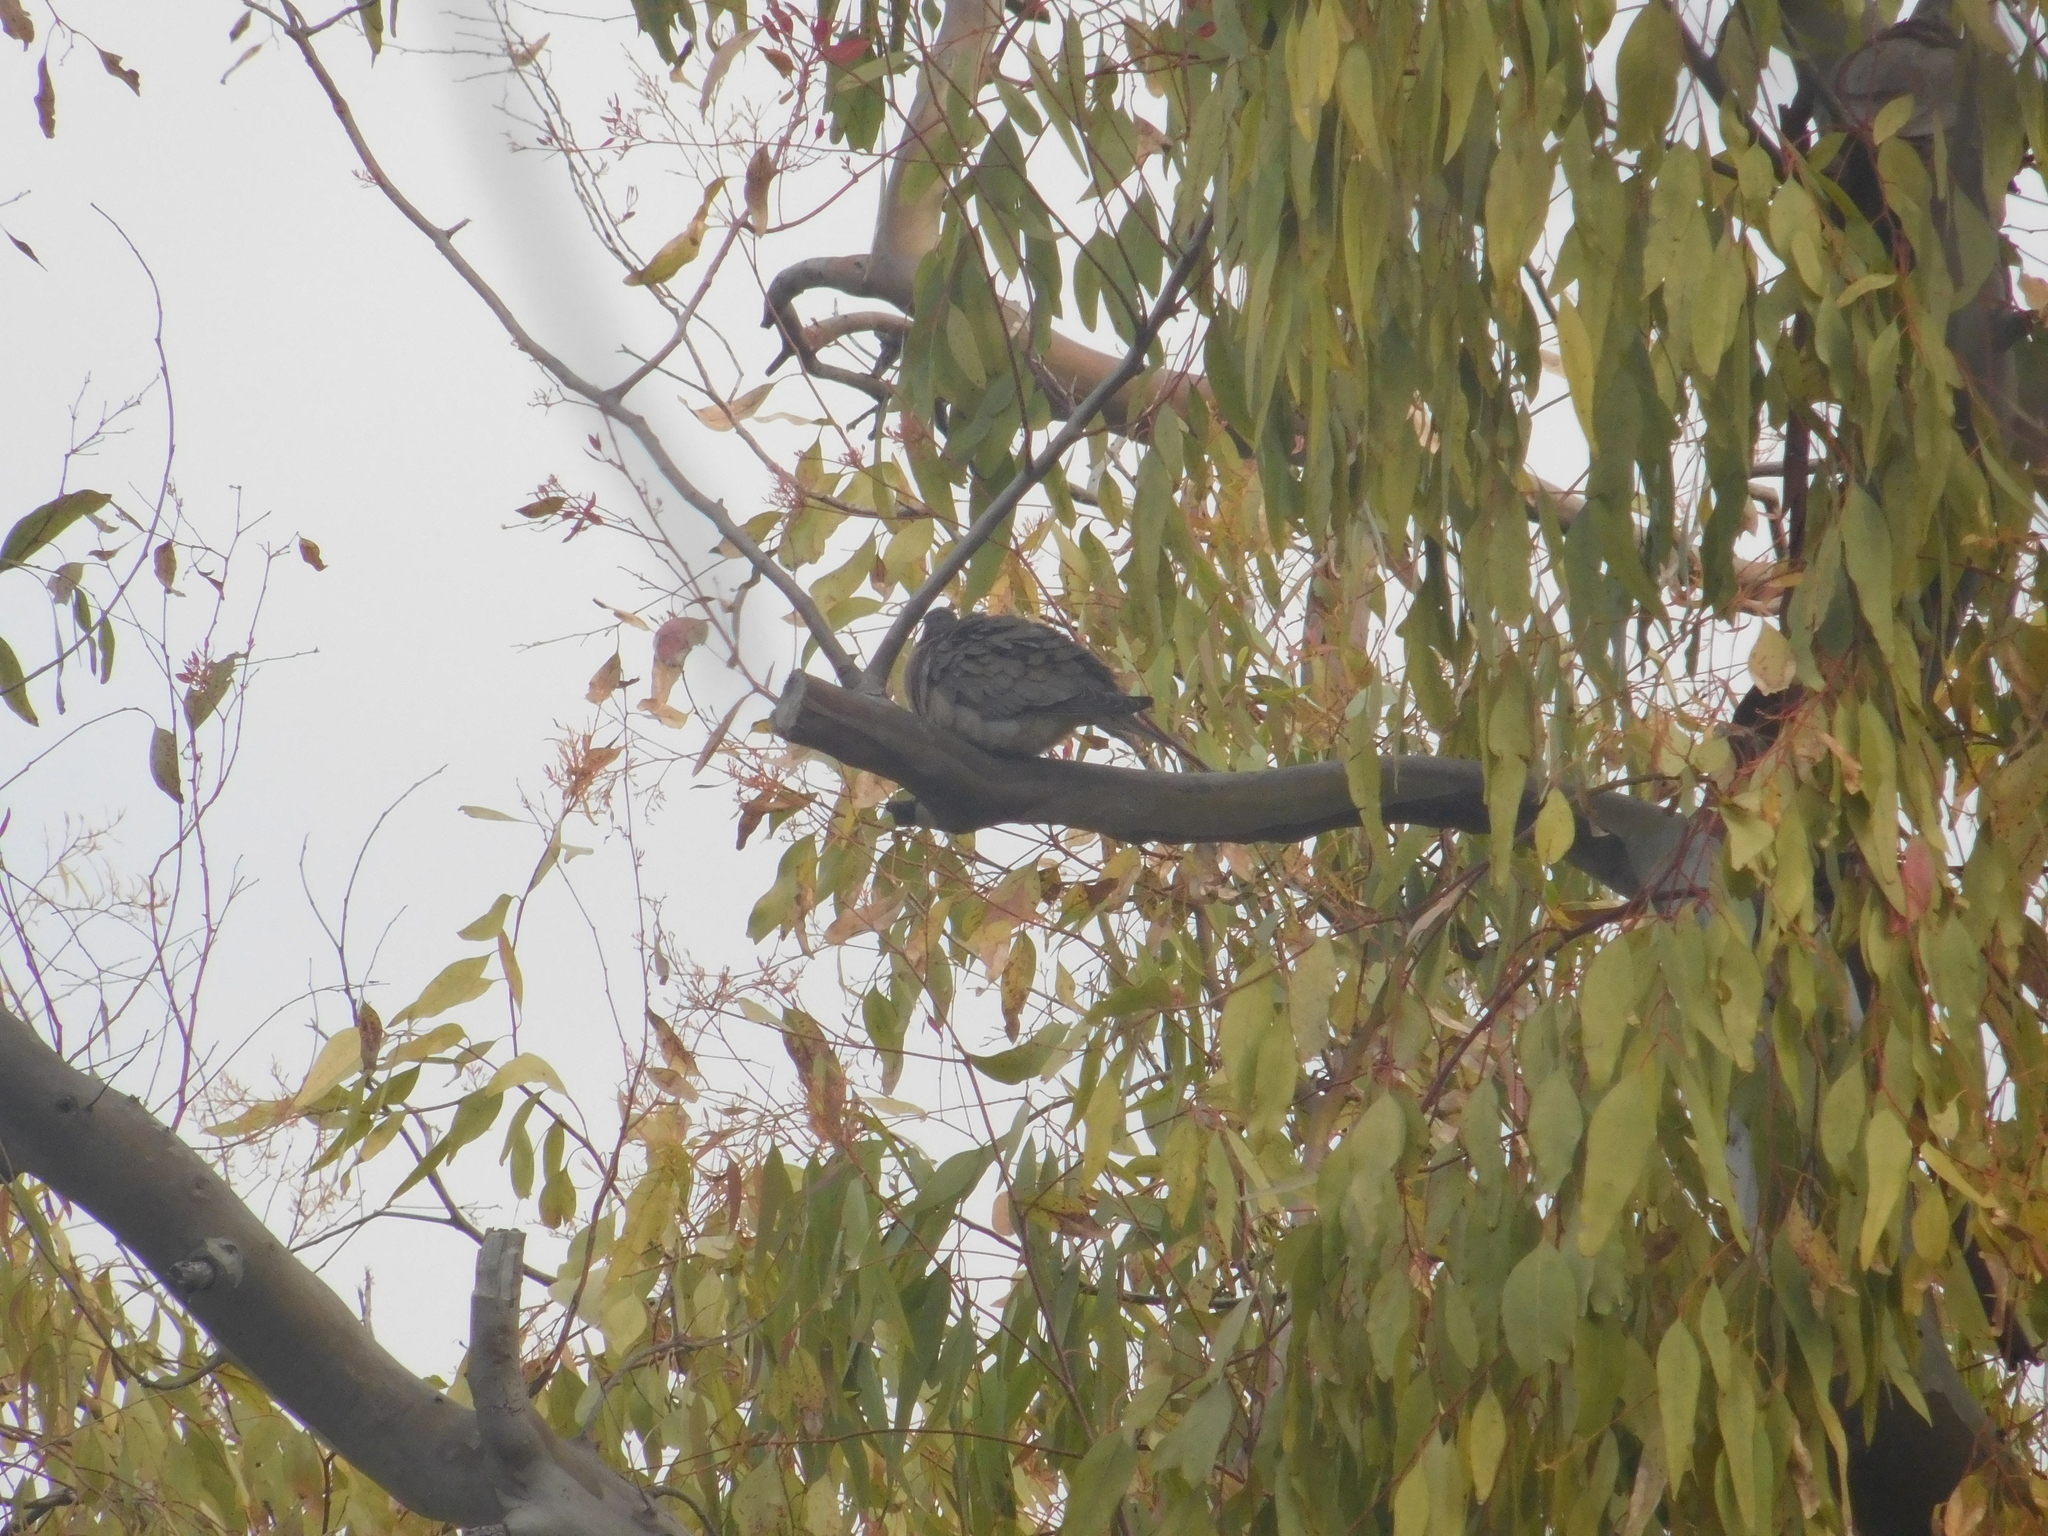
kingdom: Animalia
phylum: Chordata
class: Aves
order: Columbiformes
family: Columbidae
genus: Zenaida
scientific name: Zenaida auriculata
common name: Eared dove
